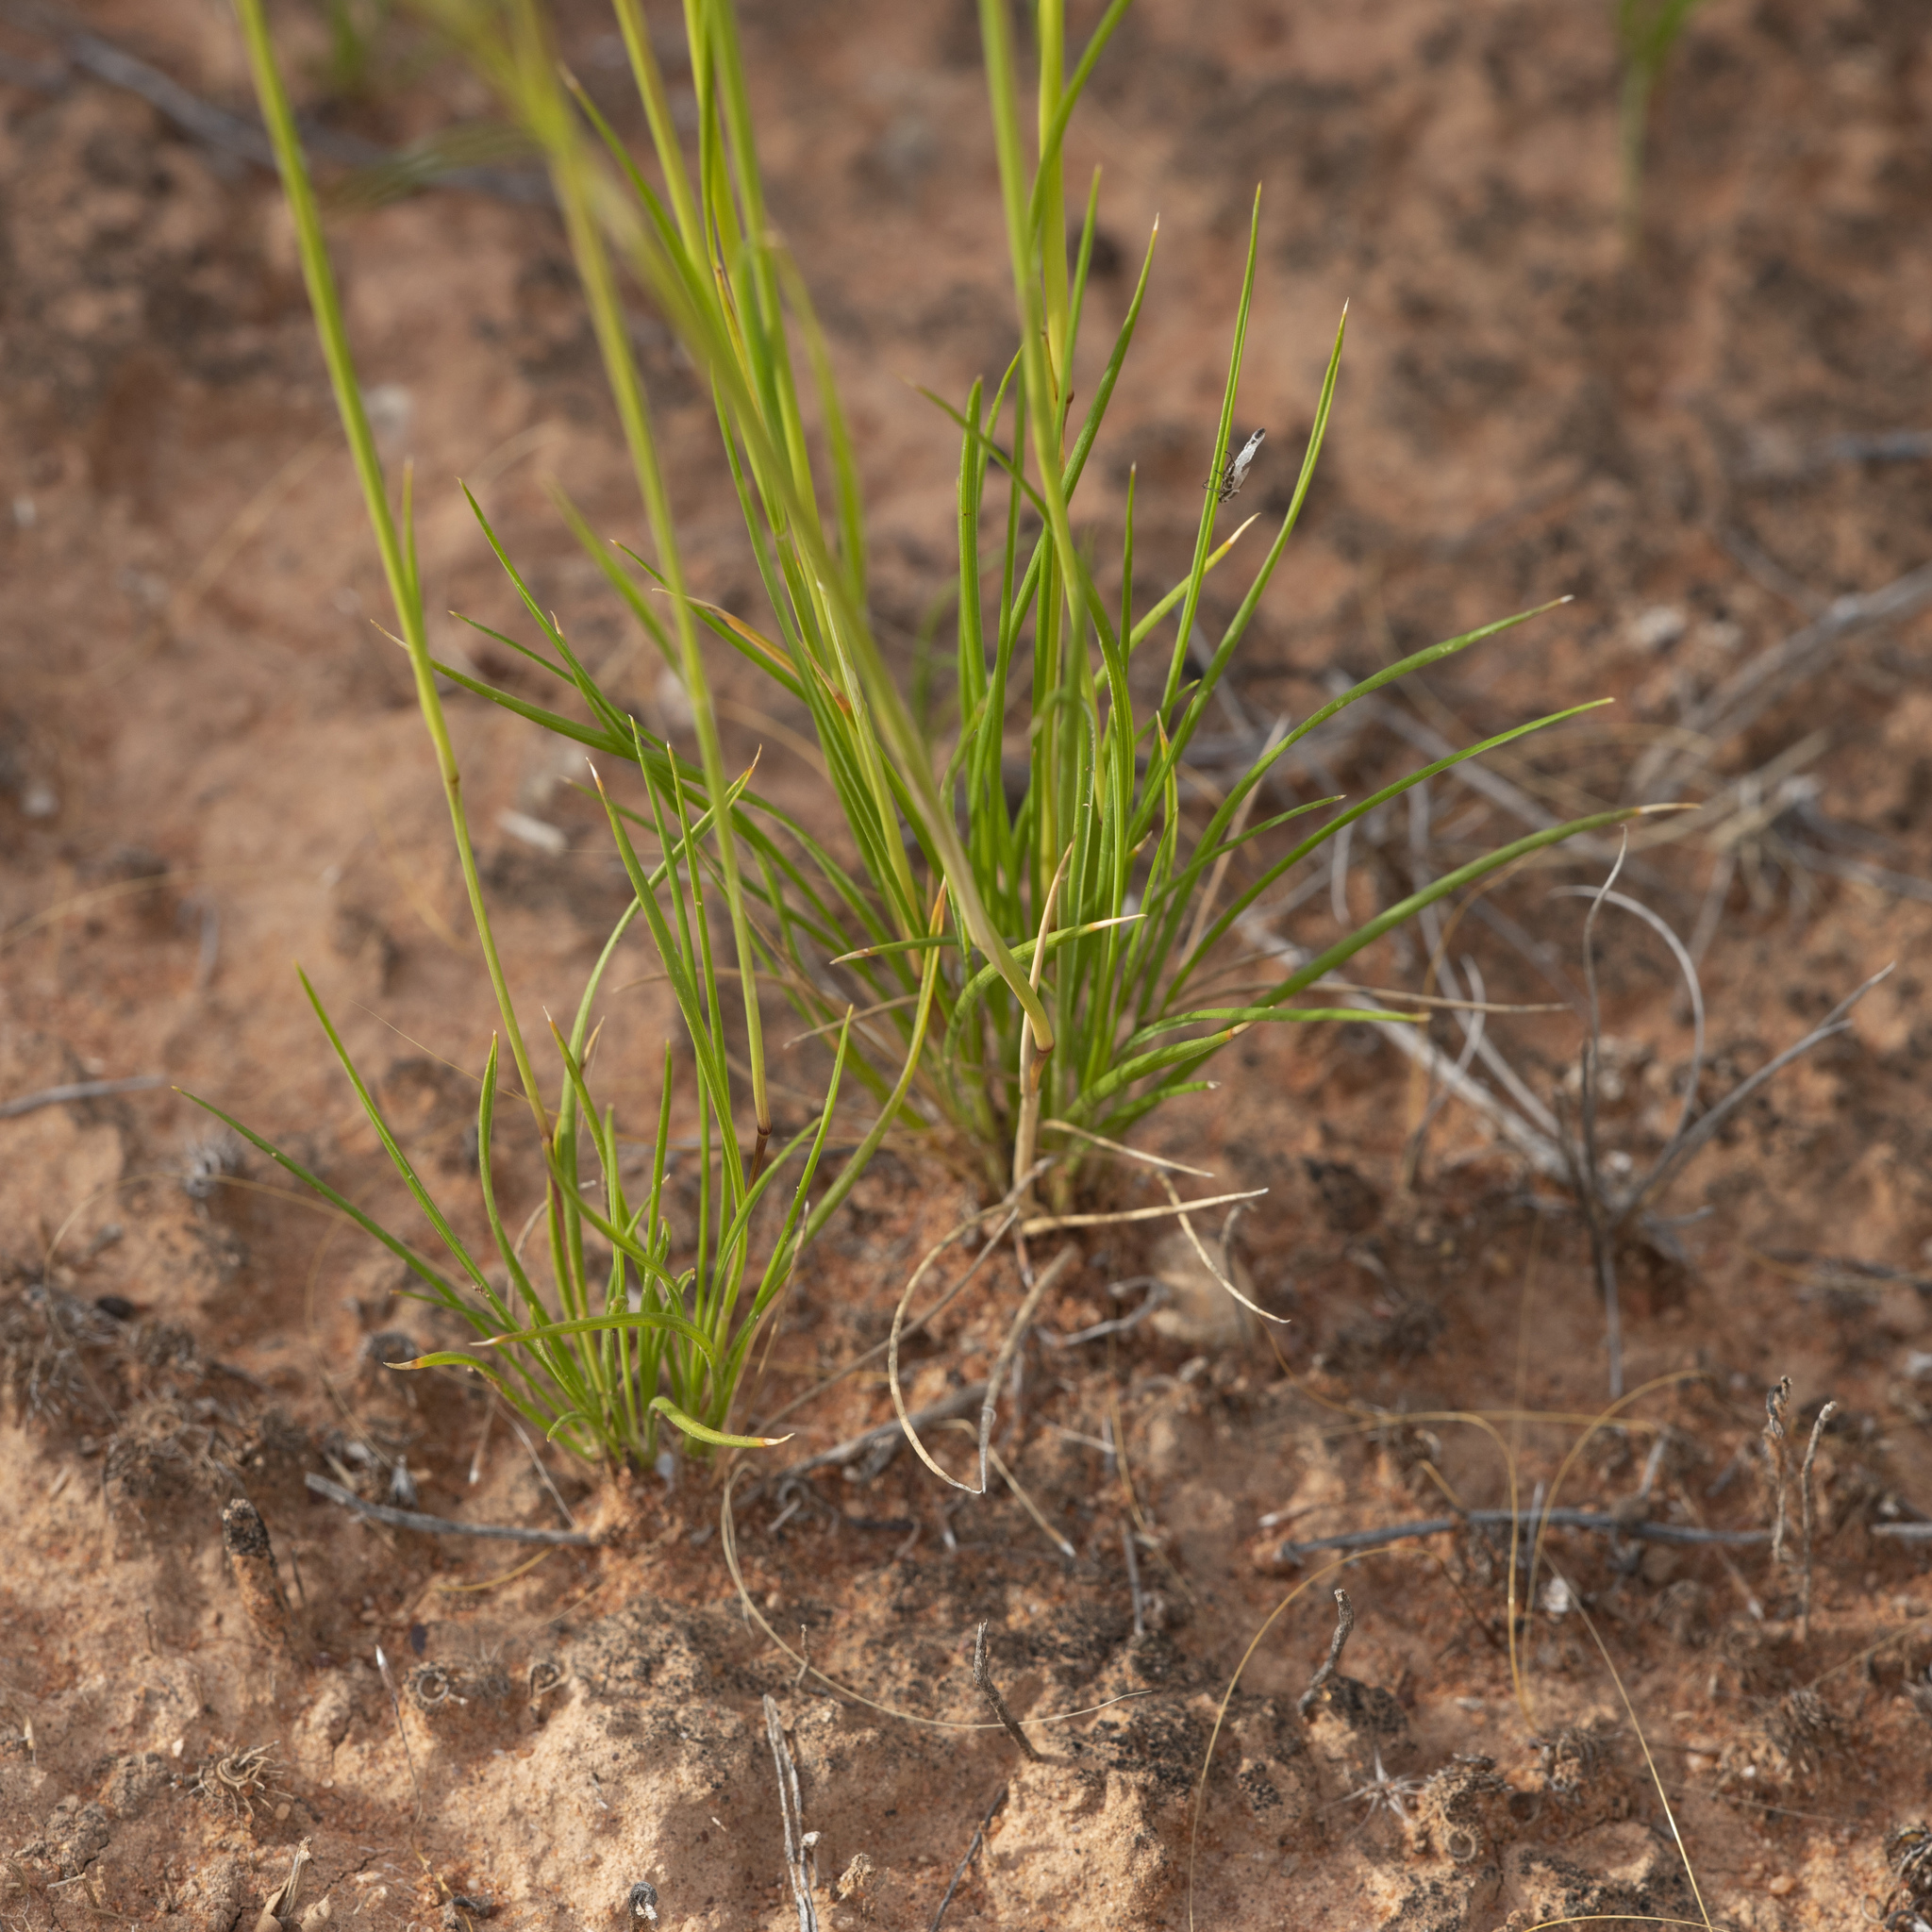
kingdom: Plantae
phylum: Tracheophyta
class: Liliopsida
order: Poales
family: Poaceae
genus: Austrostipa
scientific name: Austrostipa nitida
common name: Balcarra grass
